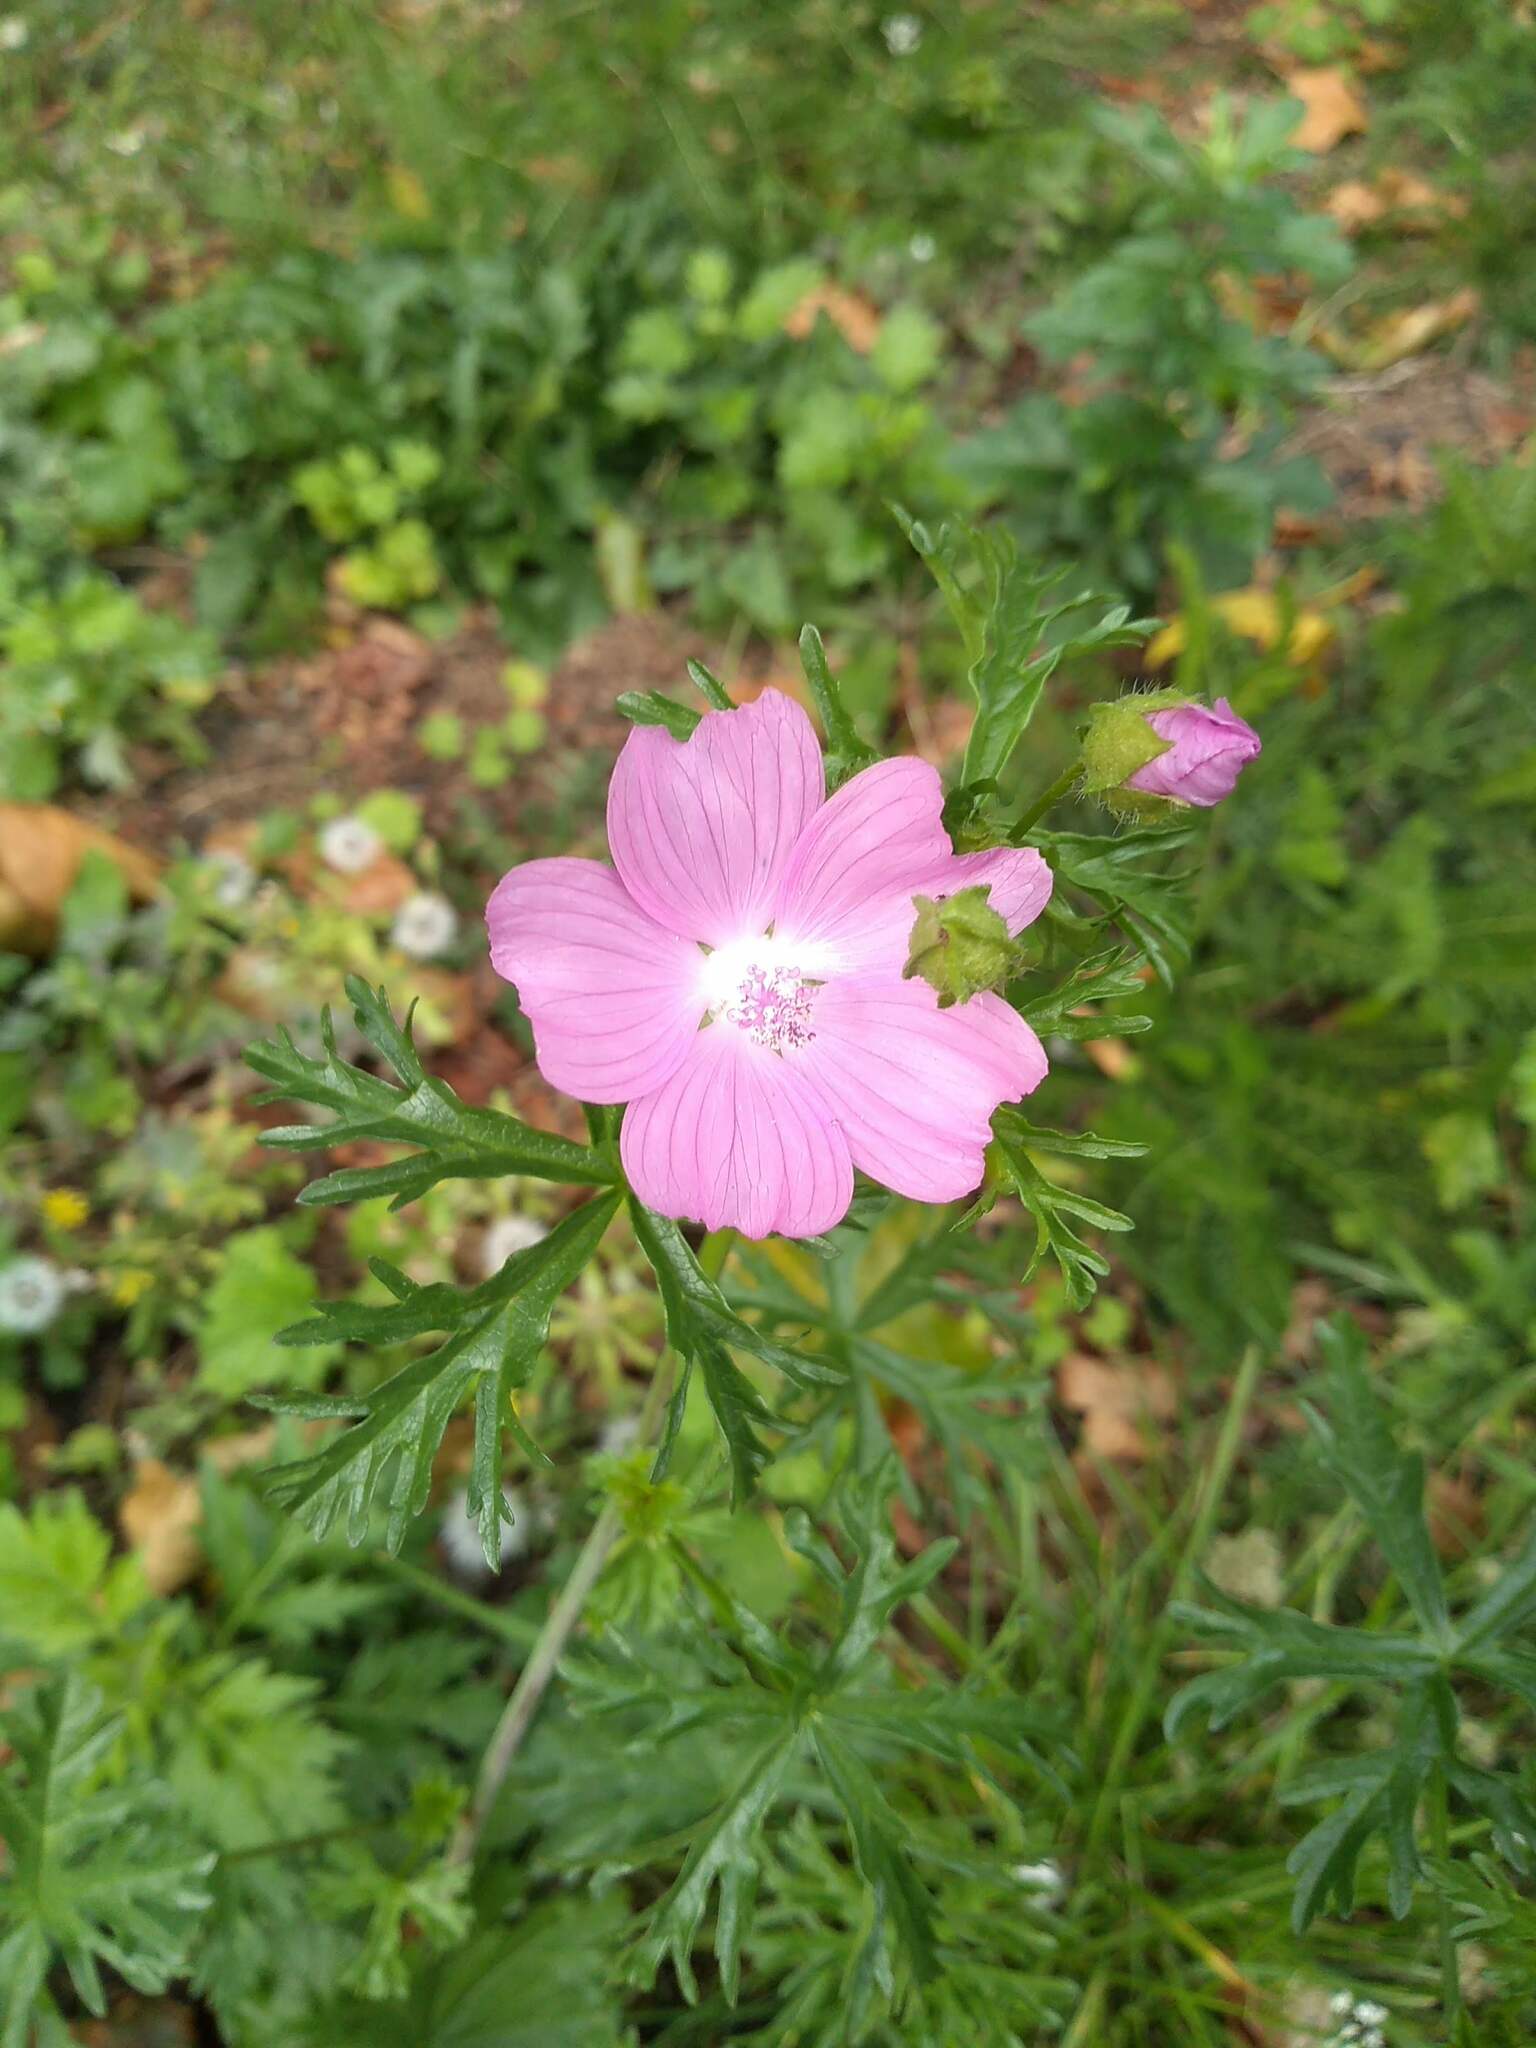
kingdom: Plantae
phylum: Tracheophyta
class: Magnoliopsida
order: Malvales
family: Malvaceae
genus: Malva
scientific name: Malva moschata
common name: Musk mallow
